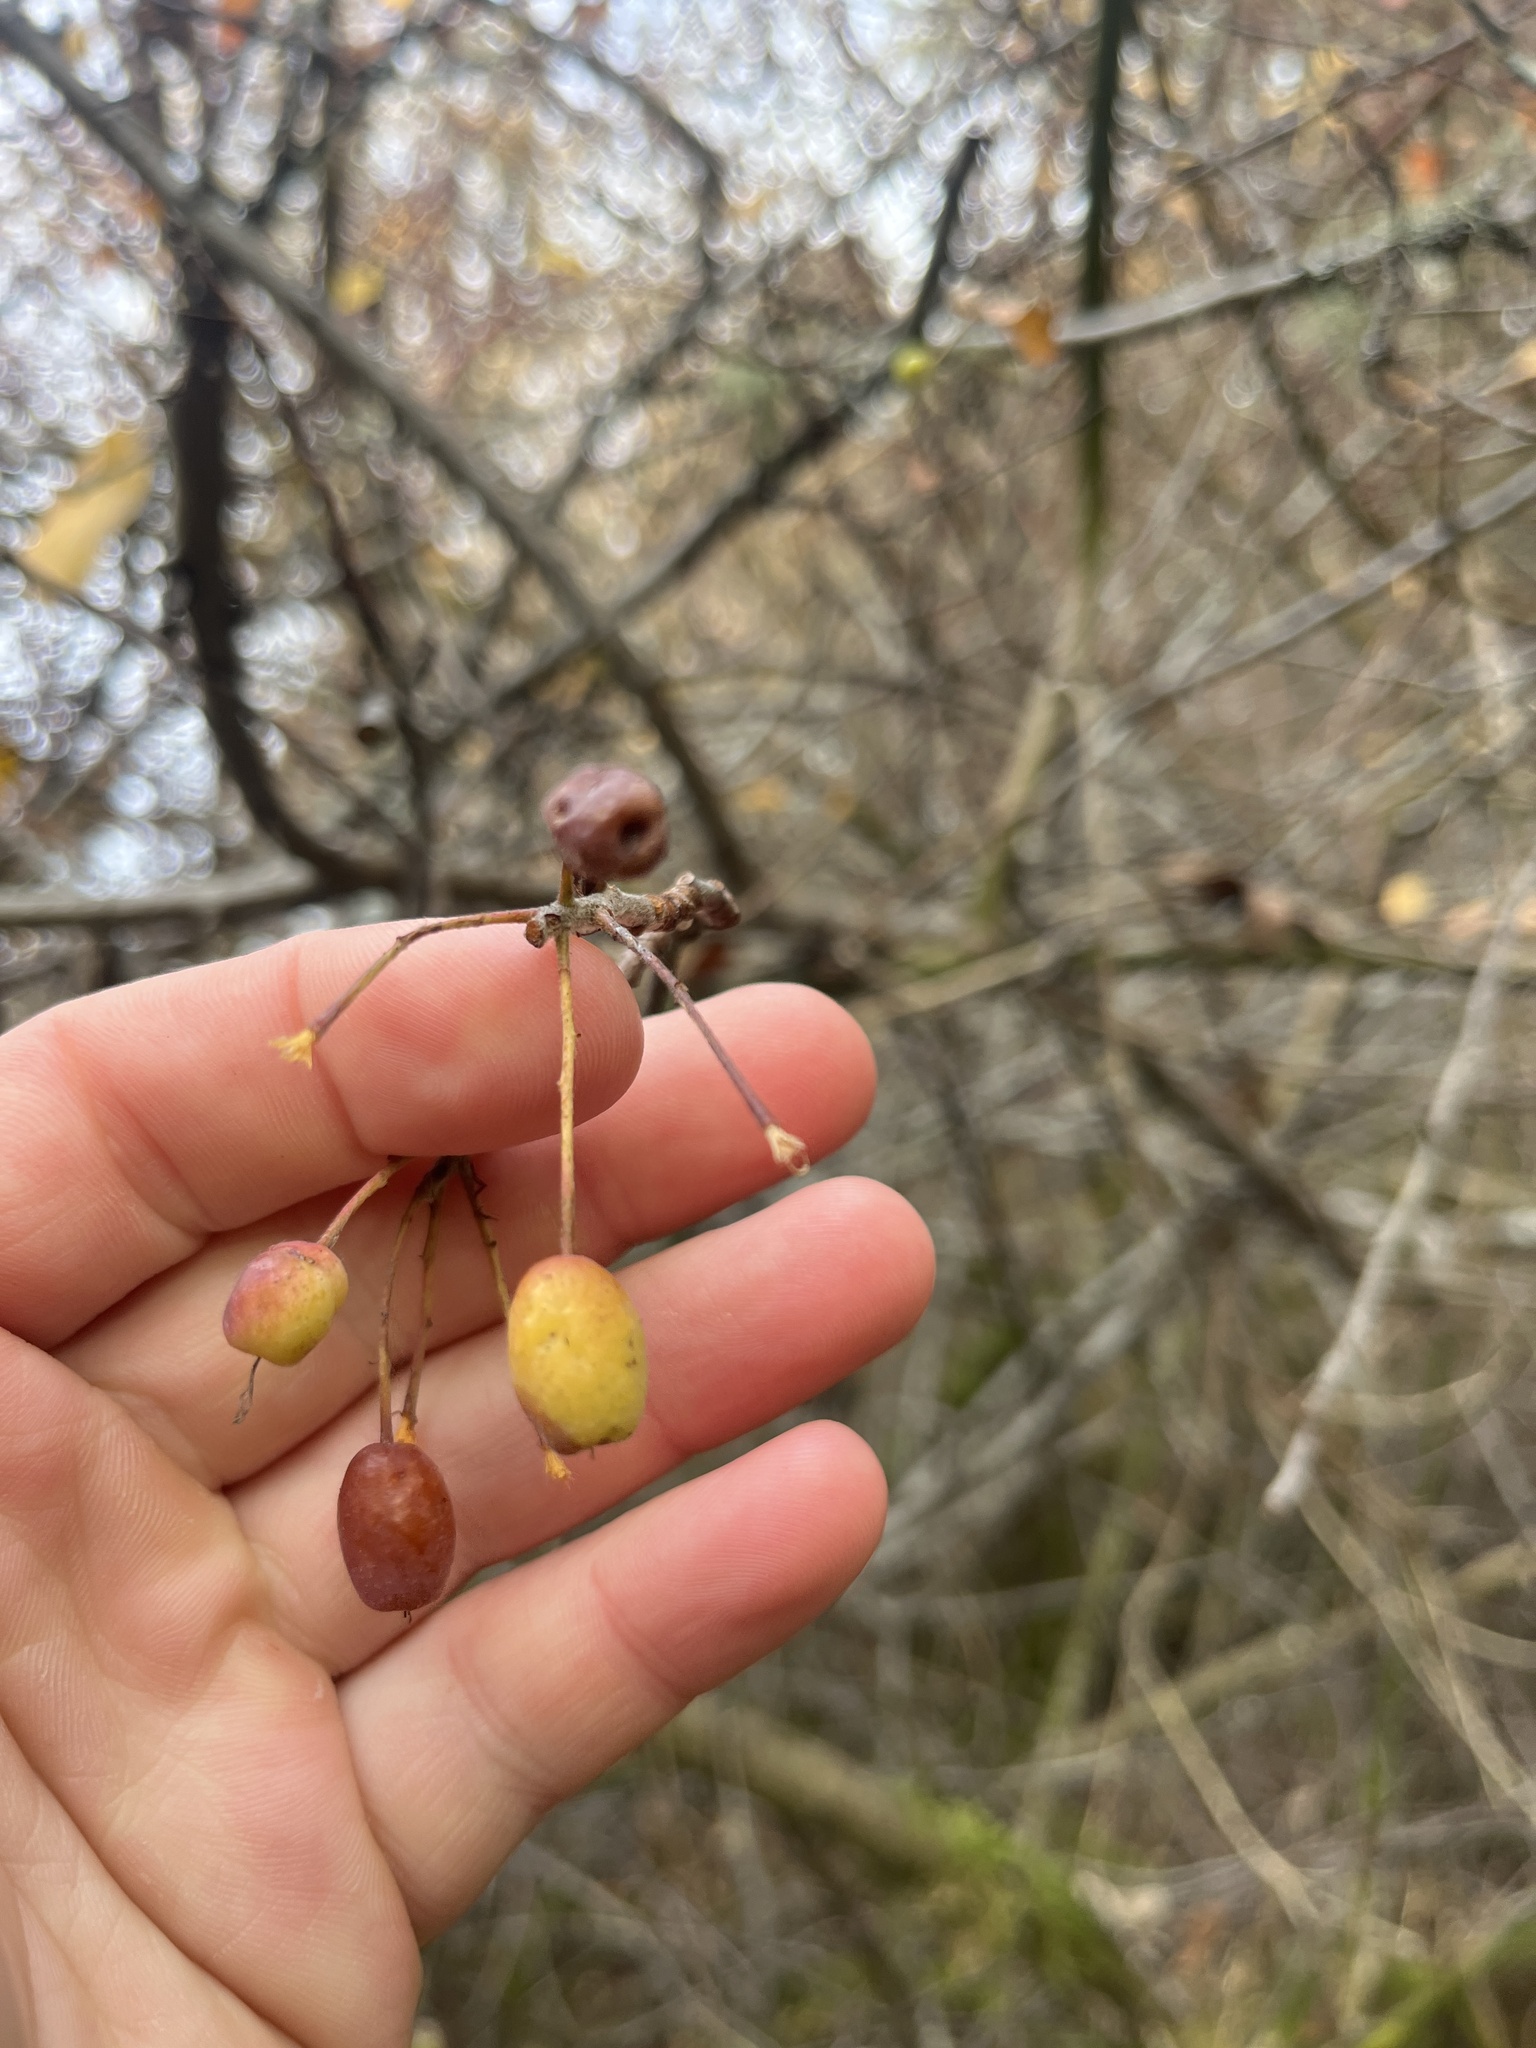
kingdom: Plantae
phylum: Tracheophyta
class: Magnoliopsida
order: Rosales
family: Rosaceae
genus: Malus
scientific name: Malus fusca
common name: Oregon crab apple
